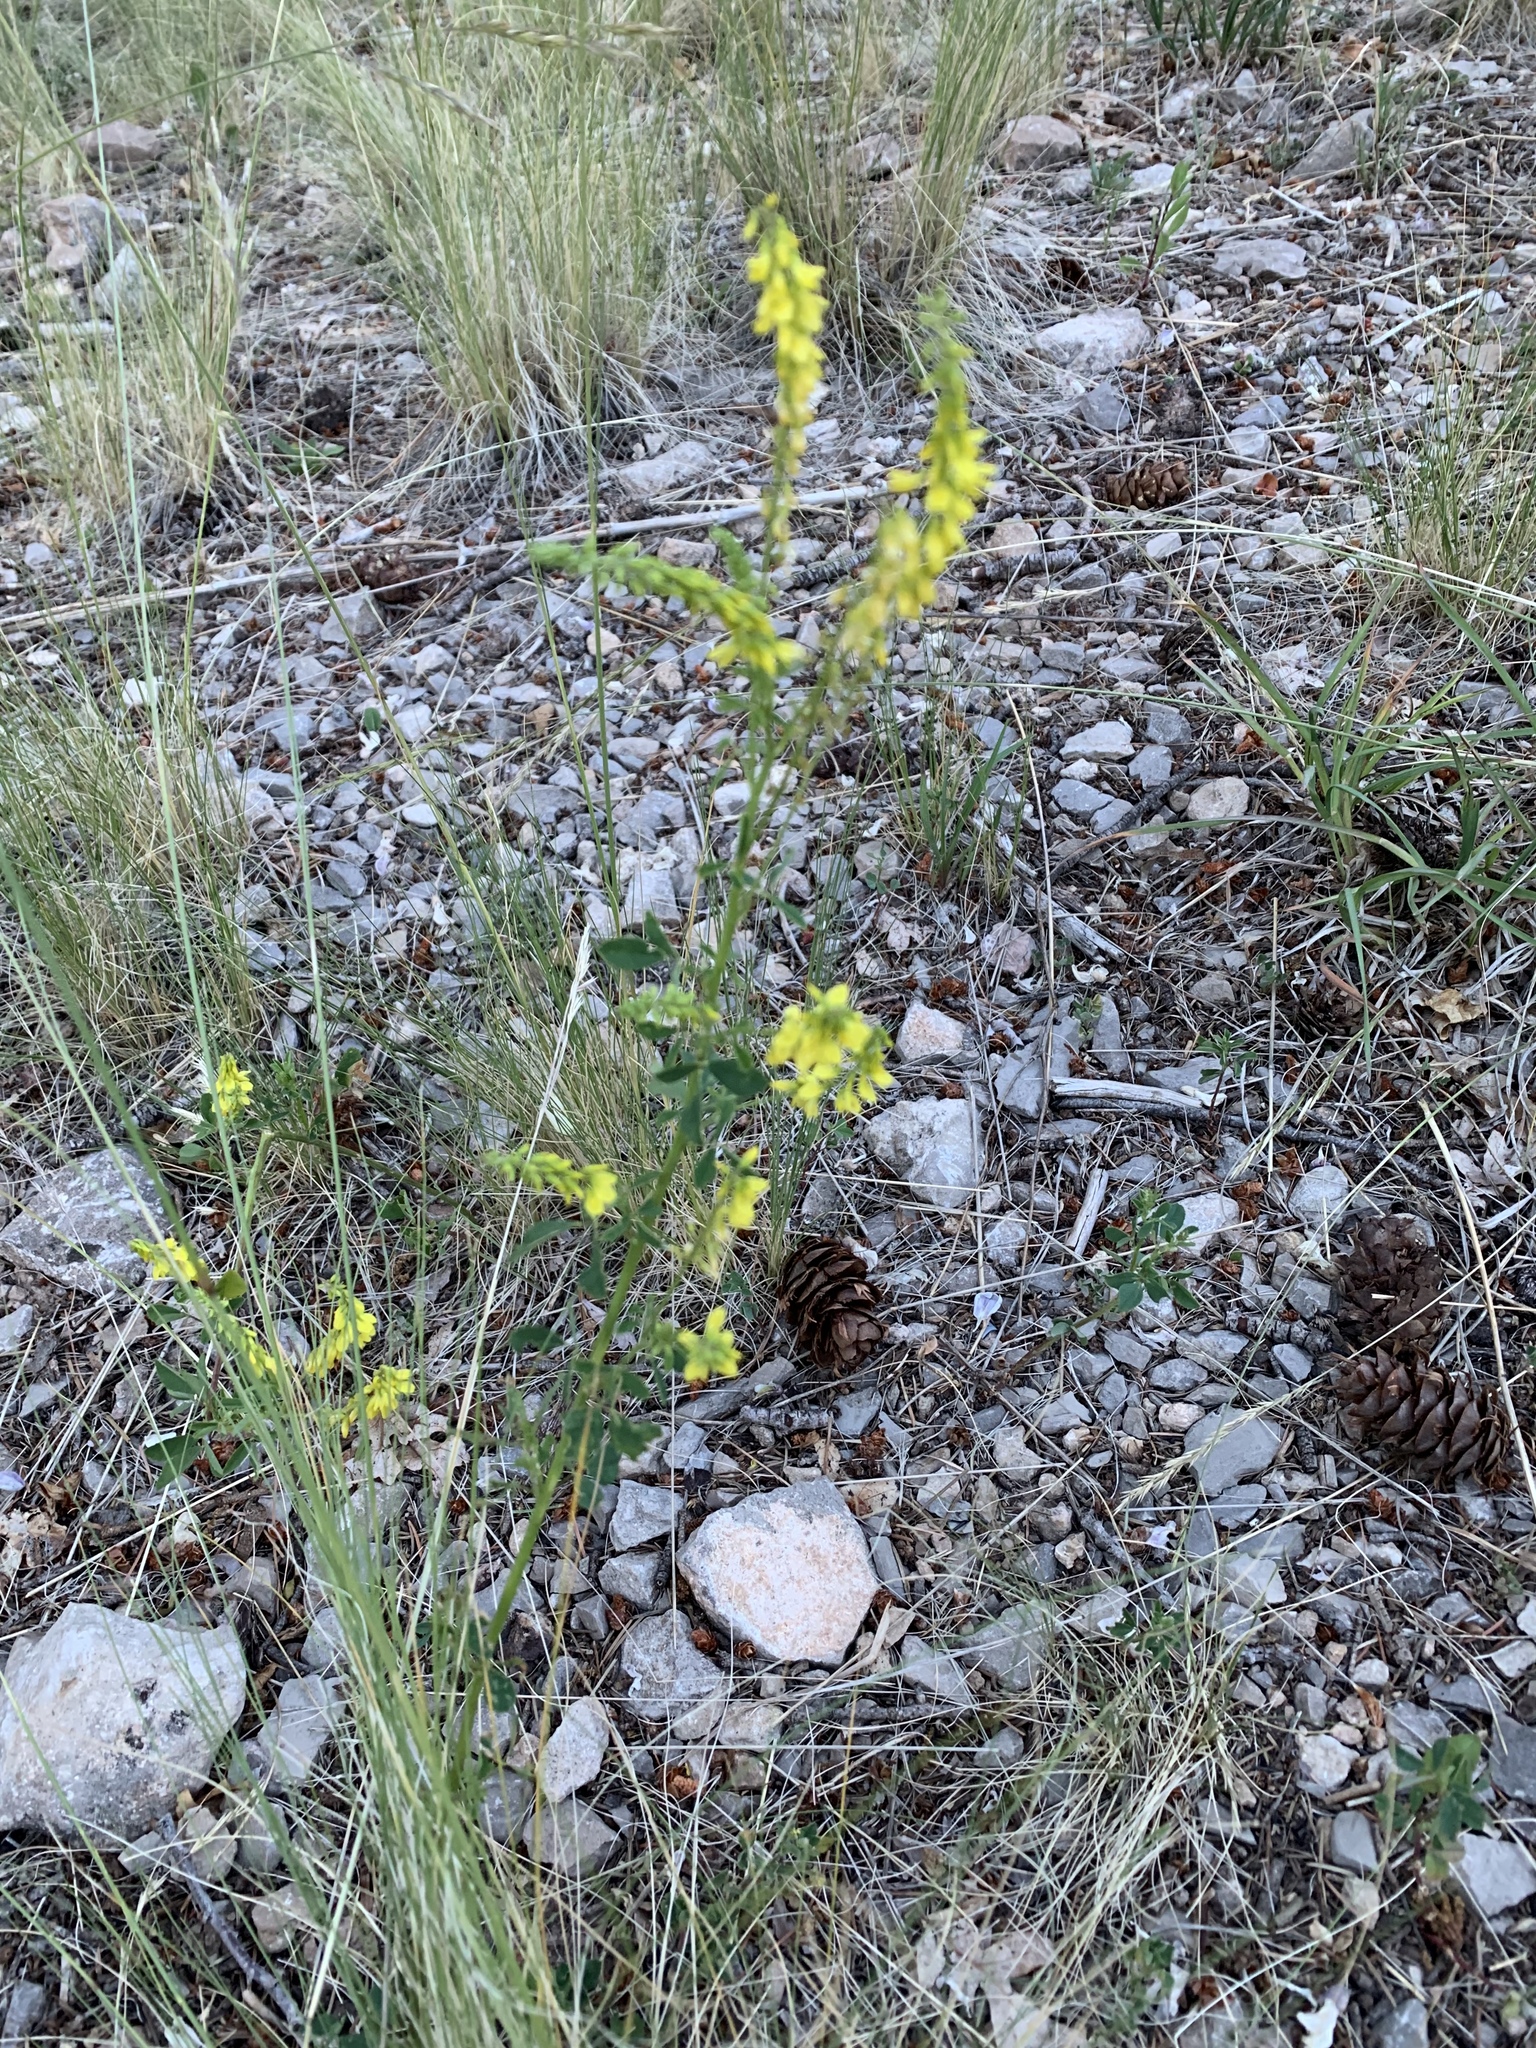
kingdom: Plantae
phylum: Tracheophyta
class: Magnoliopsida
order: Fabales
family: Fabaceae
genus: Melilotus
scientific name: Melilotus officinalis
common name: Sweetclover
